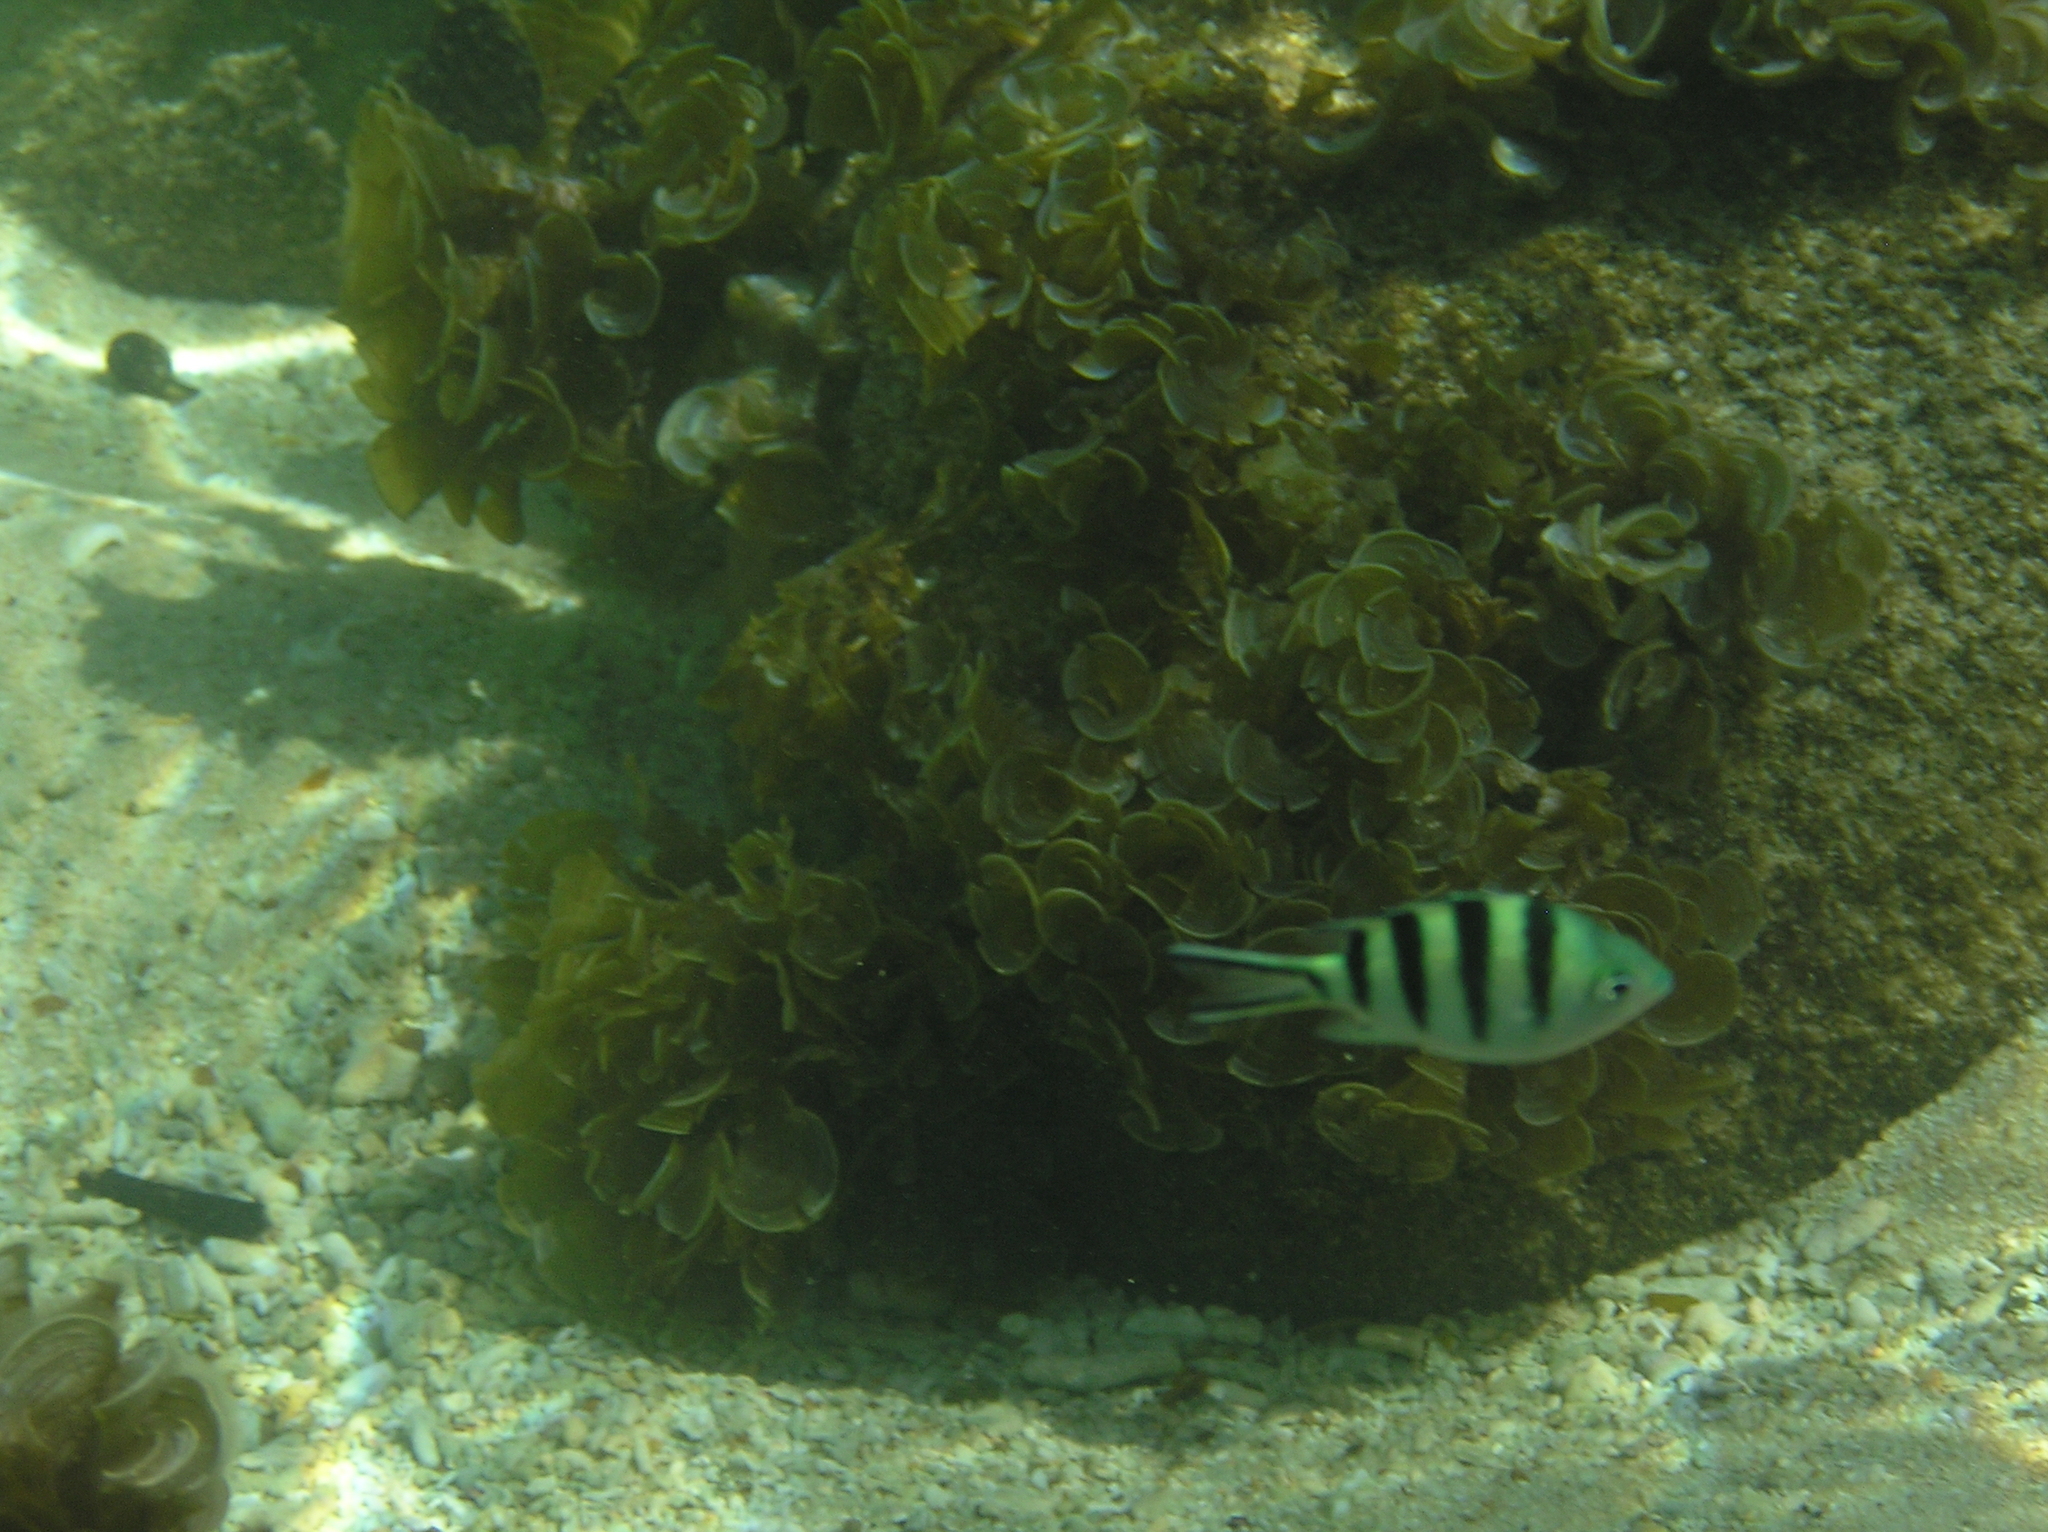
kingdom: Animalia
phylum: Chordata
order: Perciformes
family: Pomacentridae
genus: Abudefduf
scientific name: Abudefduf sexfasciatus
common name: Scissortail sergeant
